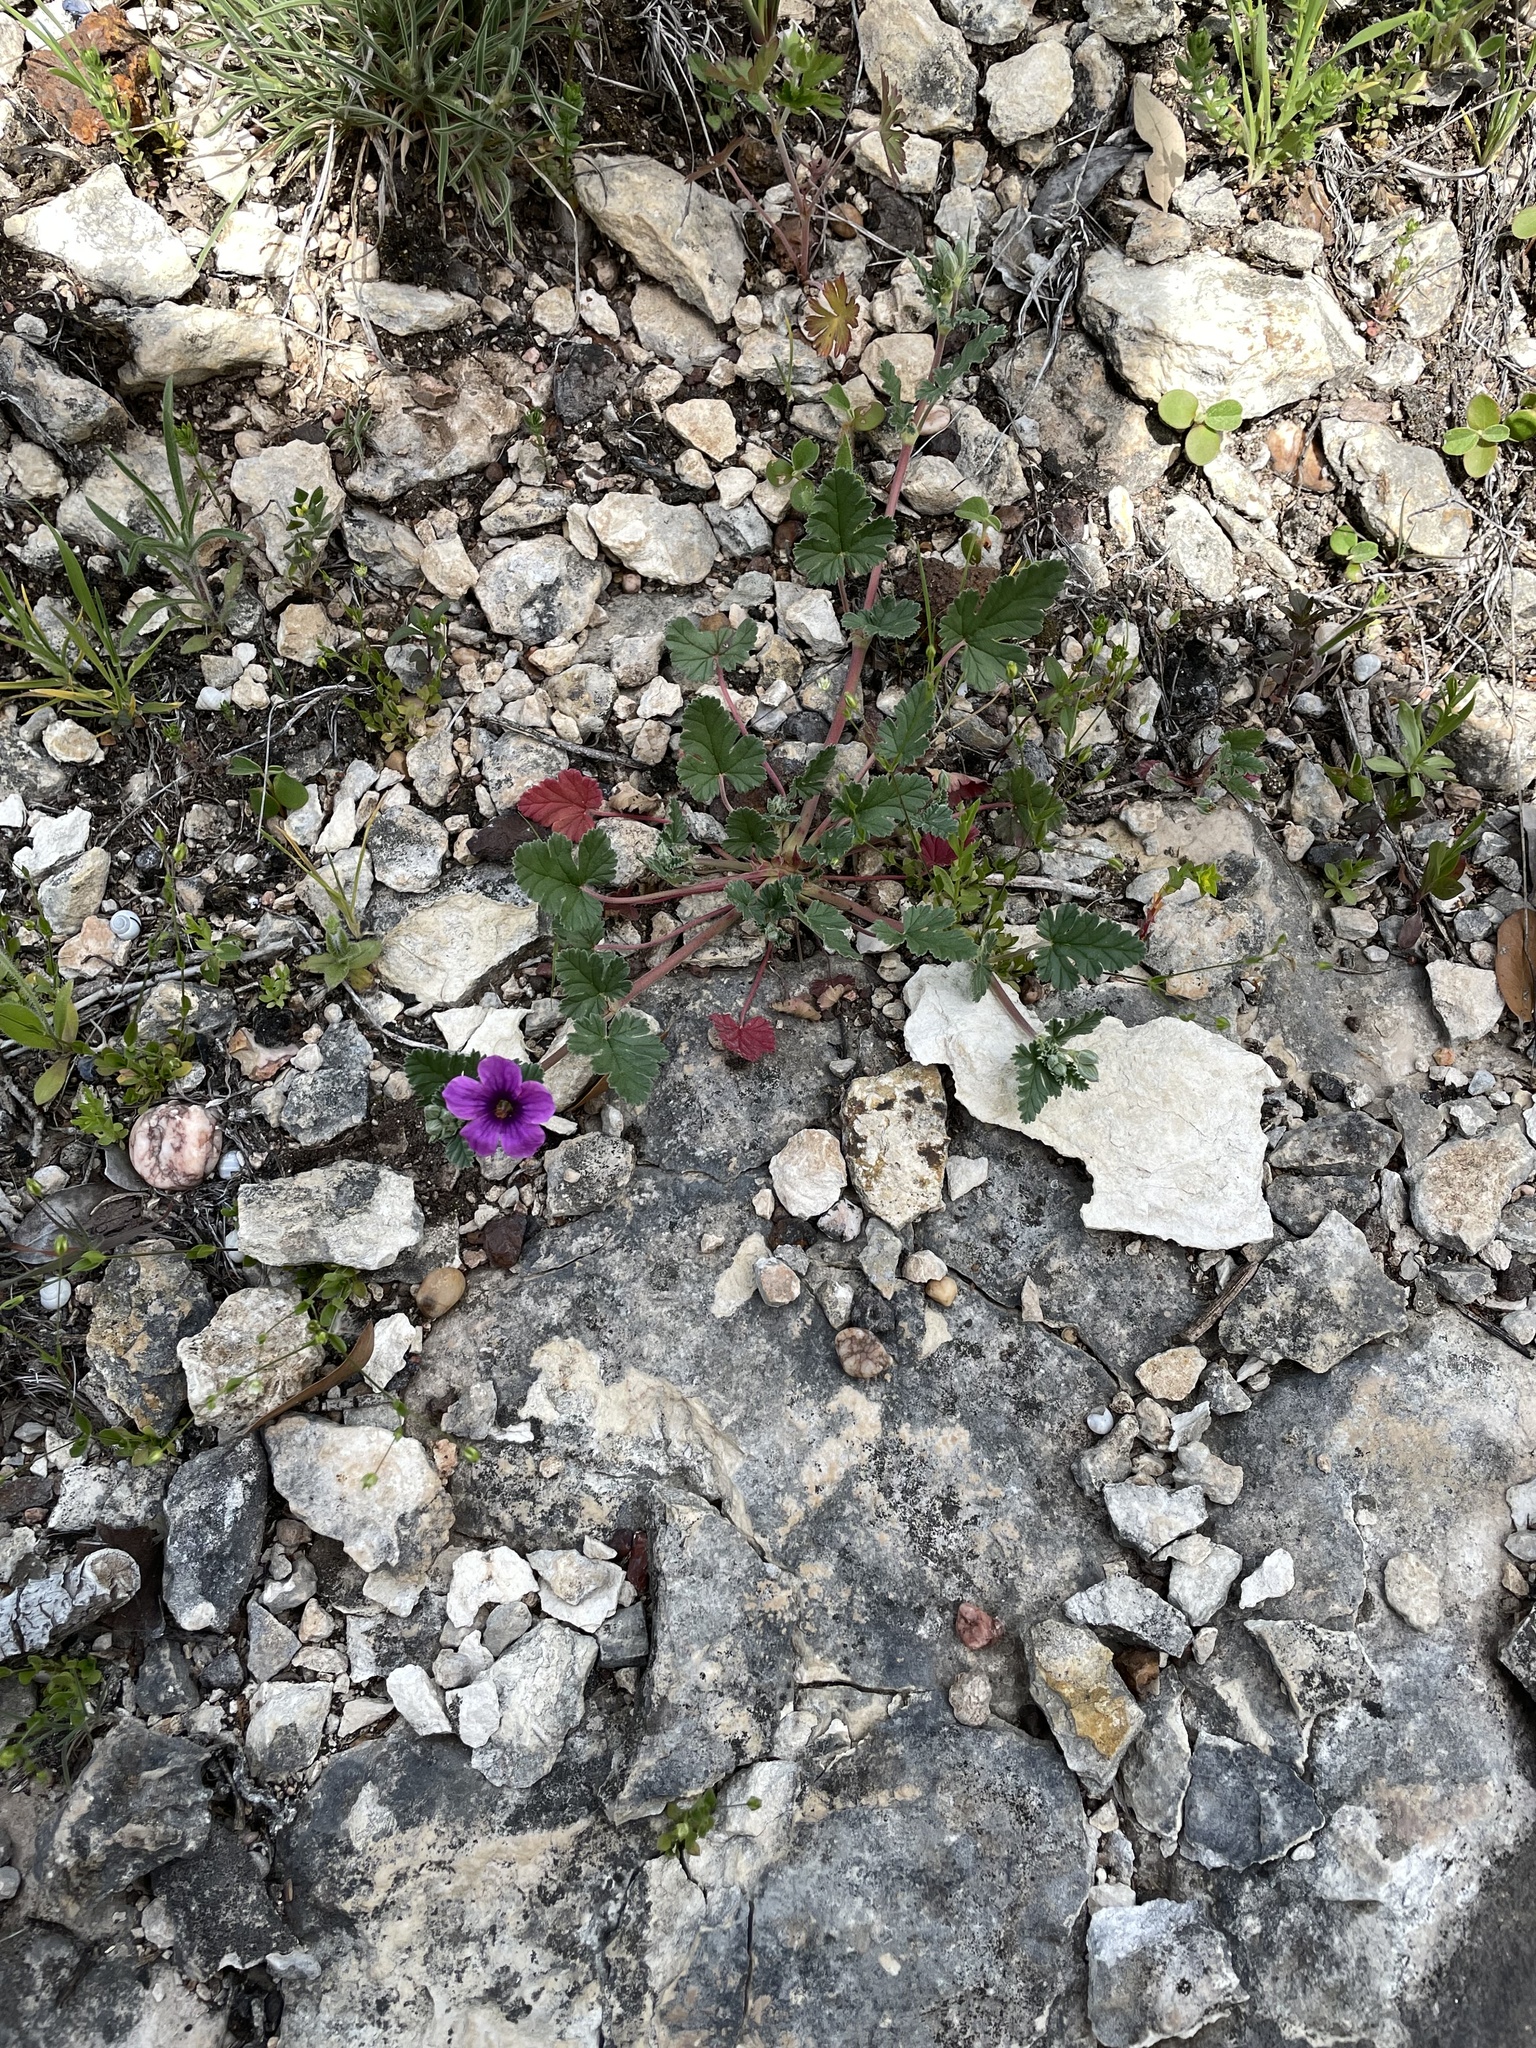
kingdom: Plantae
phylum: Tracheophyta
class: Magnoliopsida
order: Geraniales
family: Geraniaceae
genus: Erodium
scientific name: Erodium texanum
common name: Texas stork's-bill
